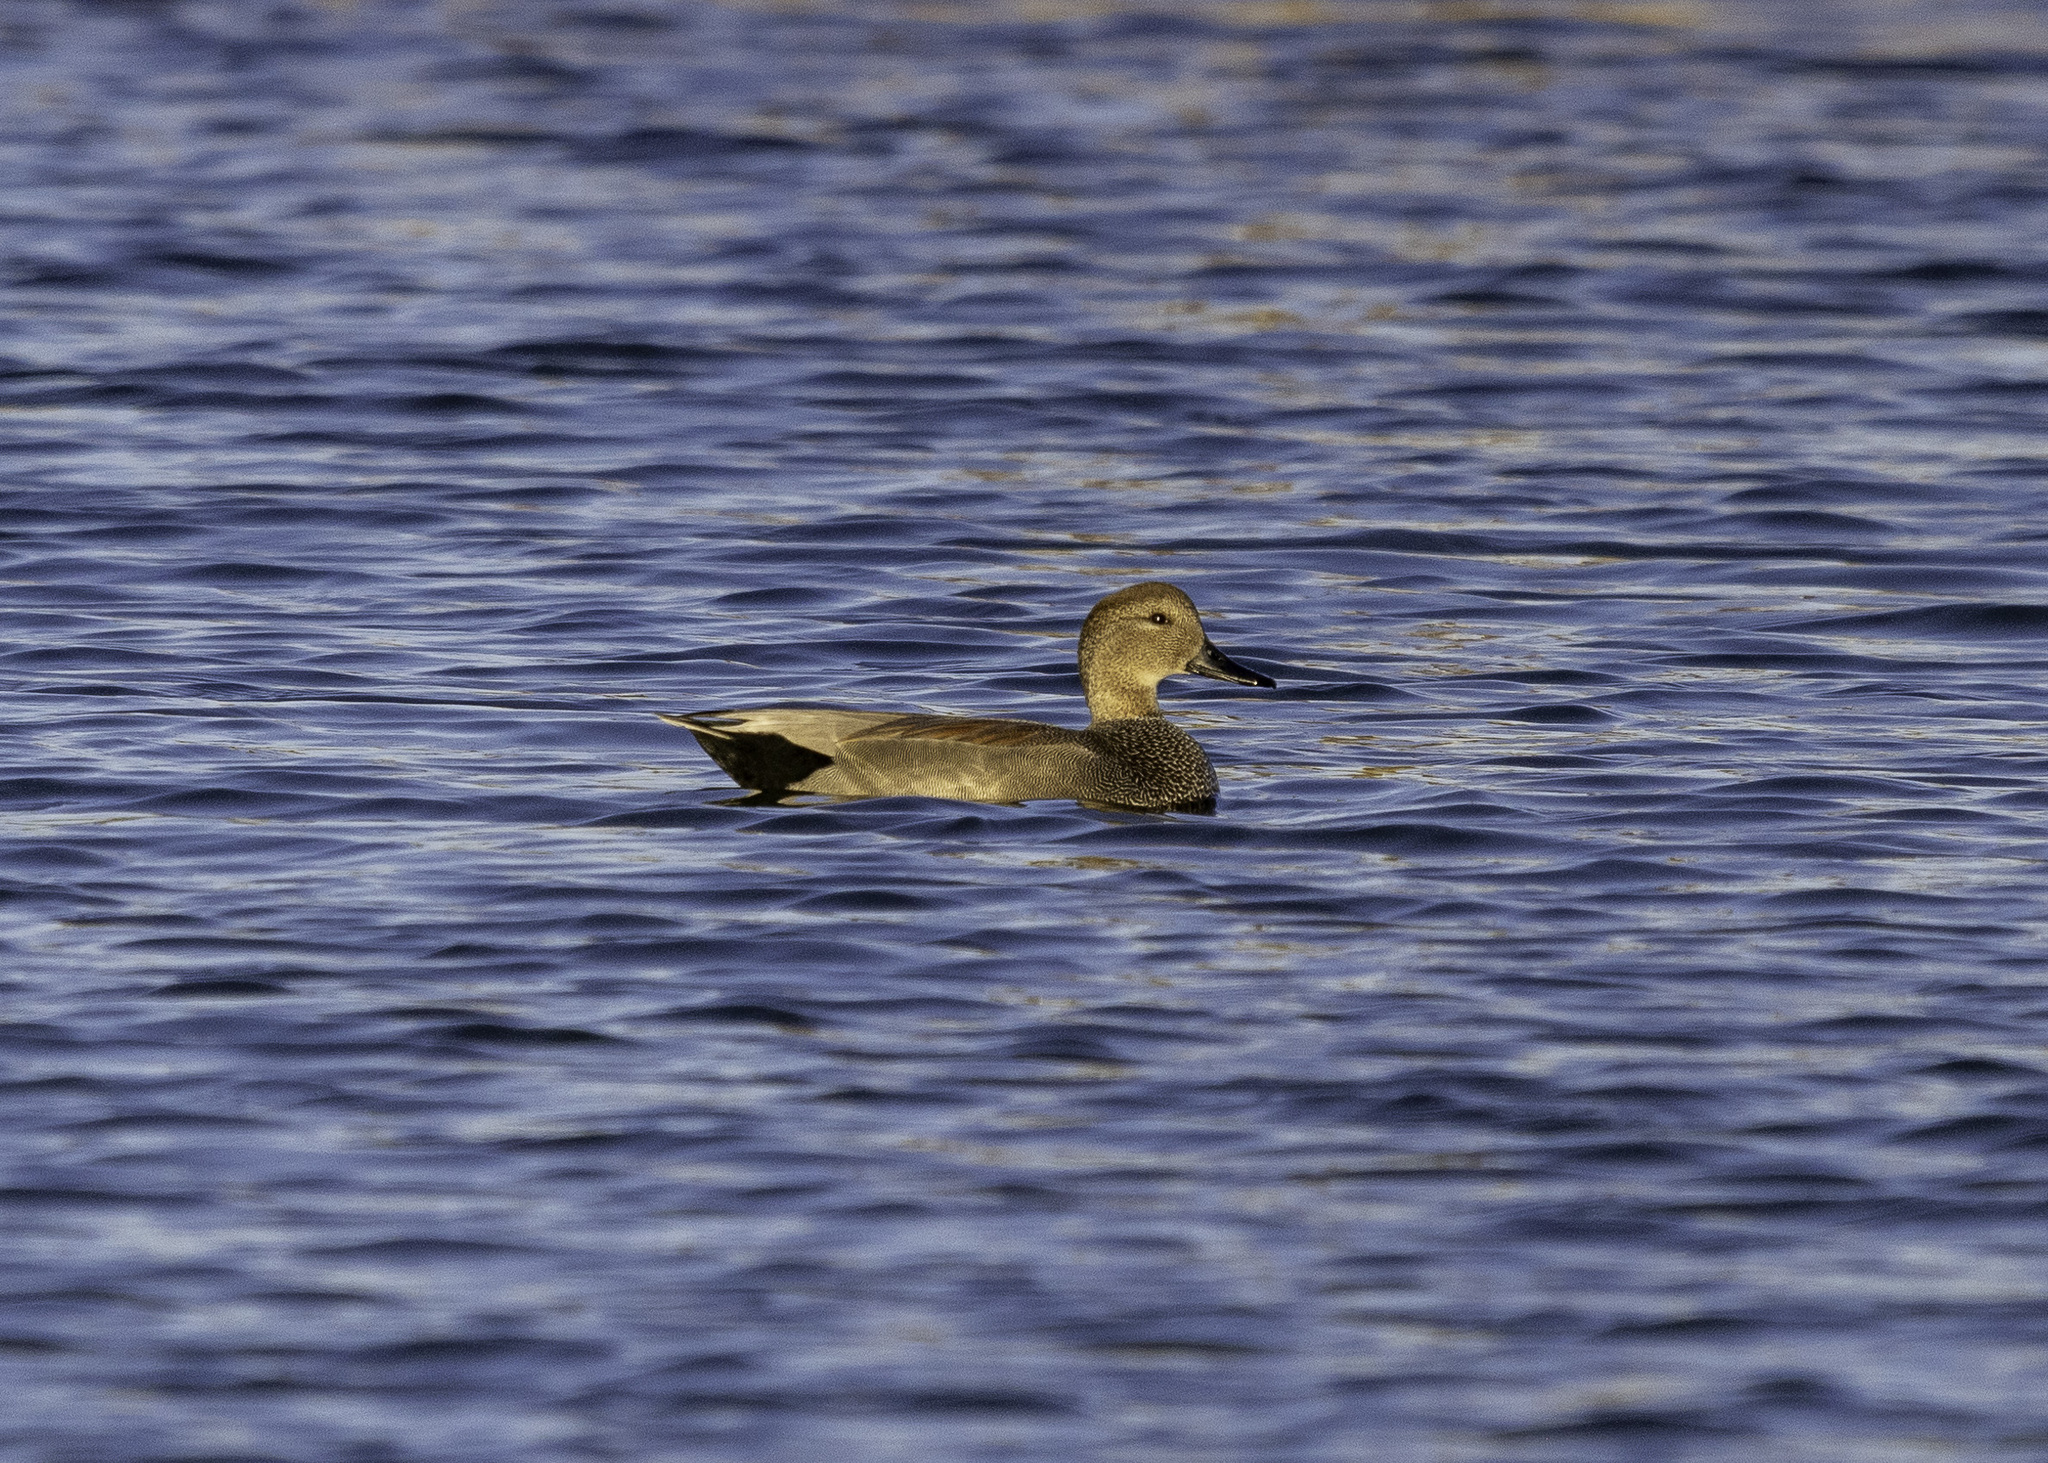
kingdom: Animalia
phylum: Chordata
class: Aves
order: Anseriformes
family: Anatidae
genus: Mareca
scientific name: Mareca strepera
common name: Gadwall
